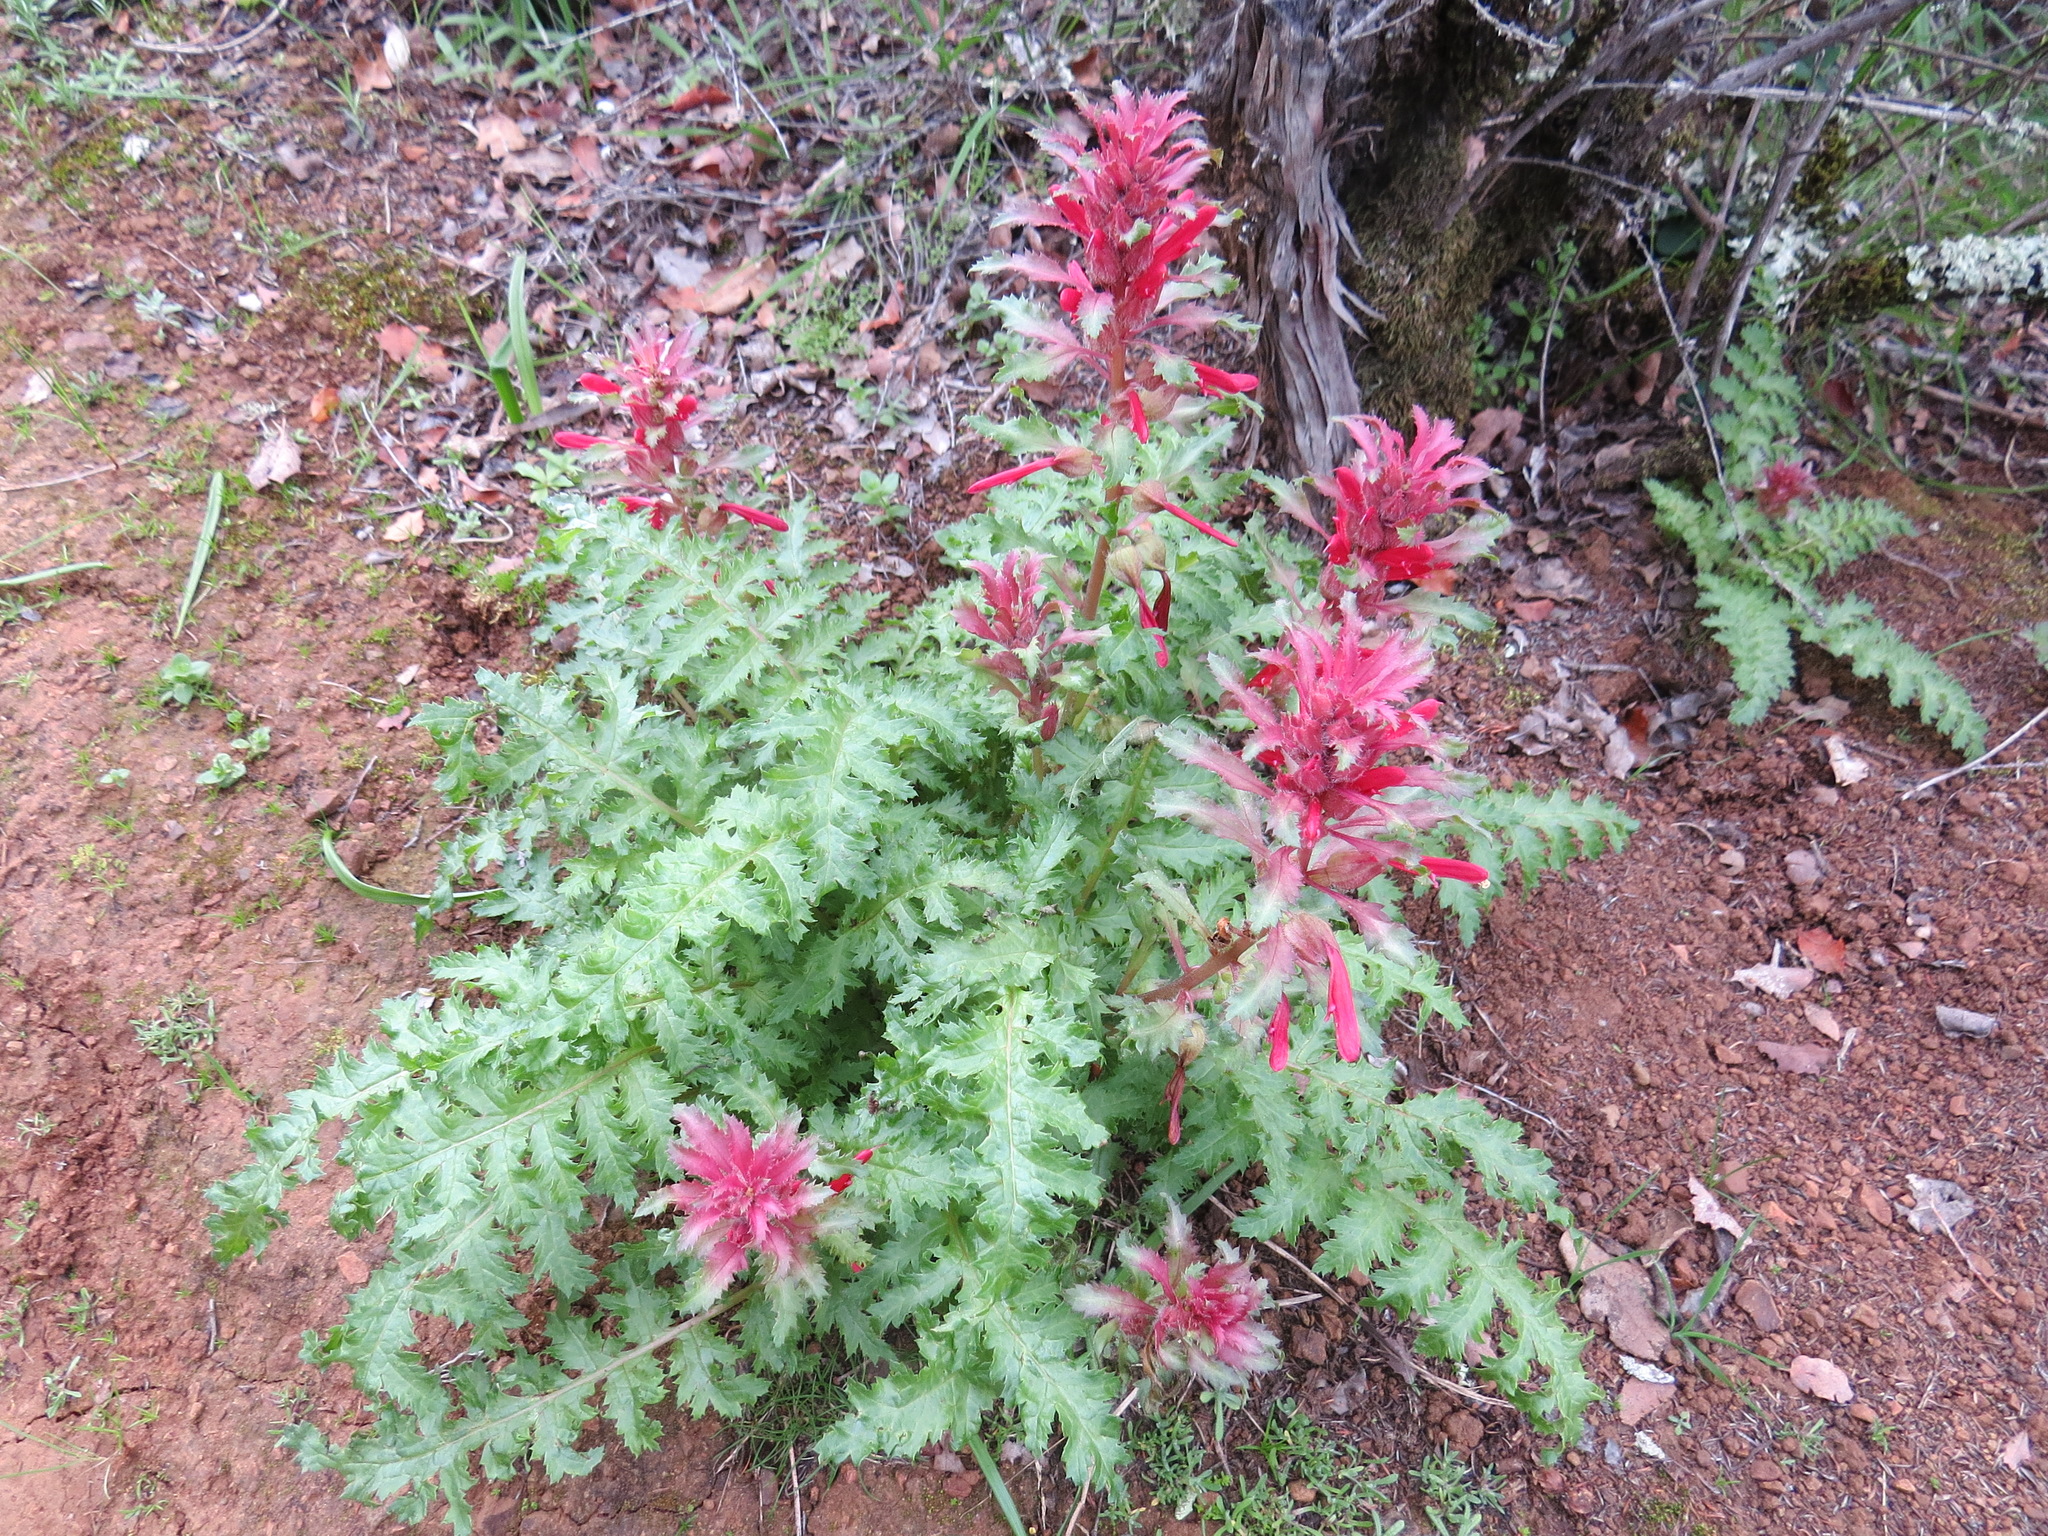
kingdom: Plantae
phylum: Tracheophyta
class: Magnoliopsida
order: Lamiales
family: Orobanchaceae
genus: Pedicularis
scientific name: Pedicularis densiflora
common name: Indian warrior
